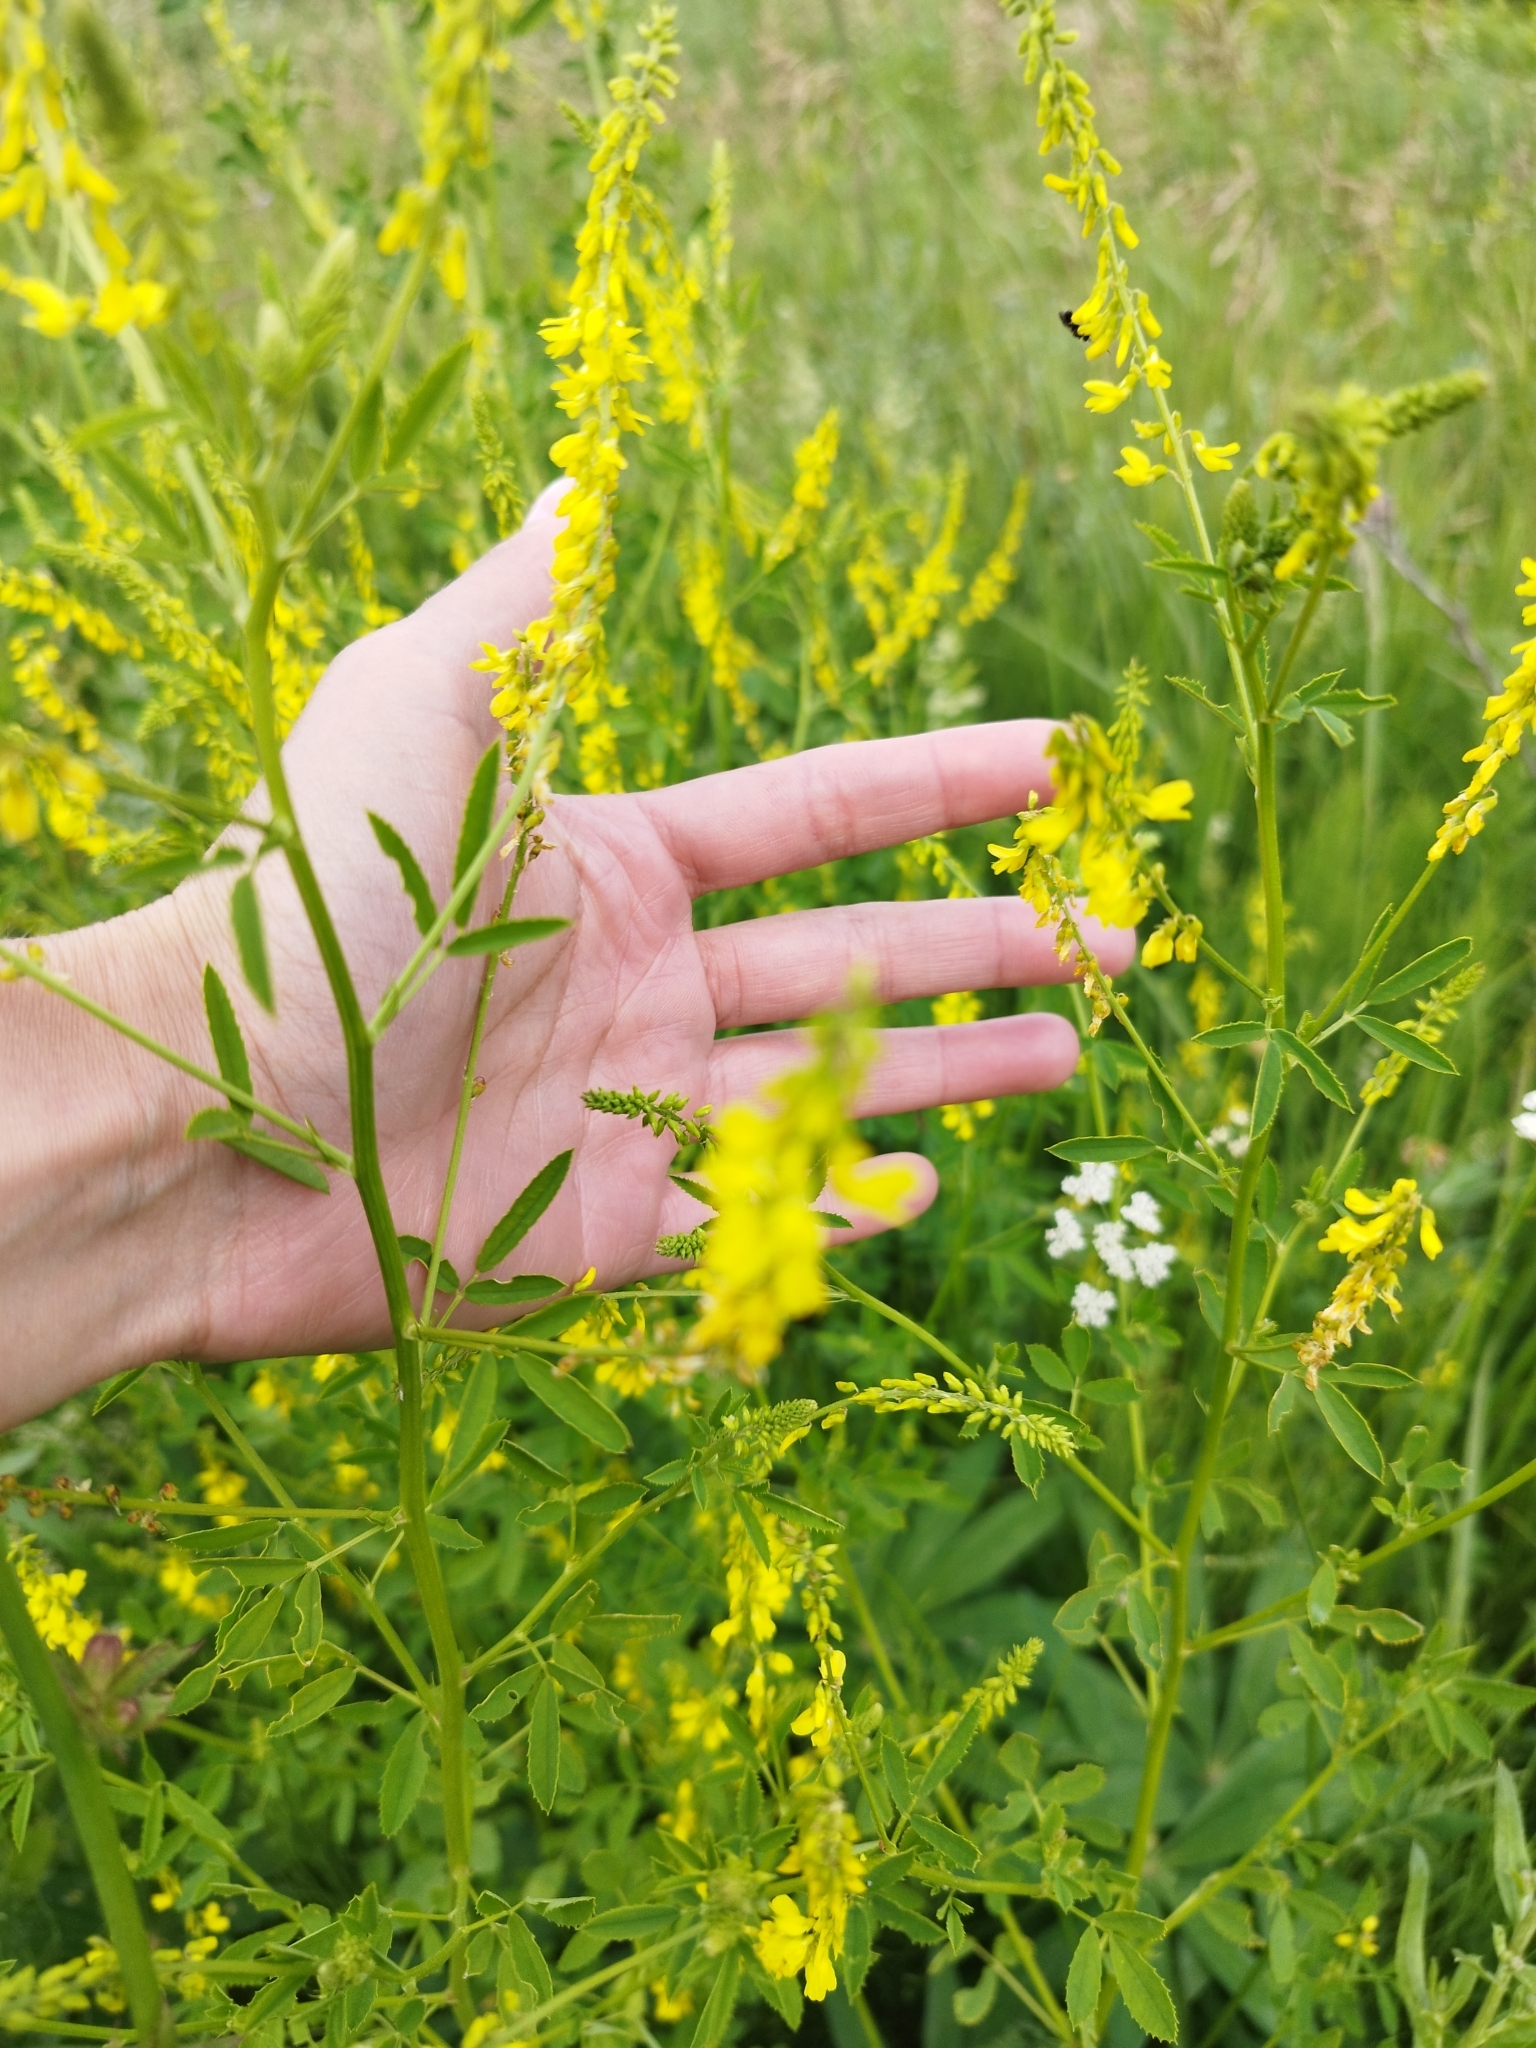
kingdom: Plantae
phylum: Tracheophyta
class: Magnoliopsida
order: Fabales
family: Fabaceae
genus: Melilotus
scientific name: Melilotus officinalis
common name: Sweetclover
